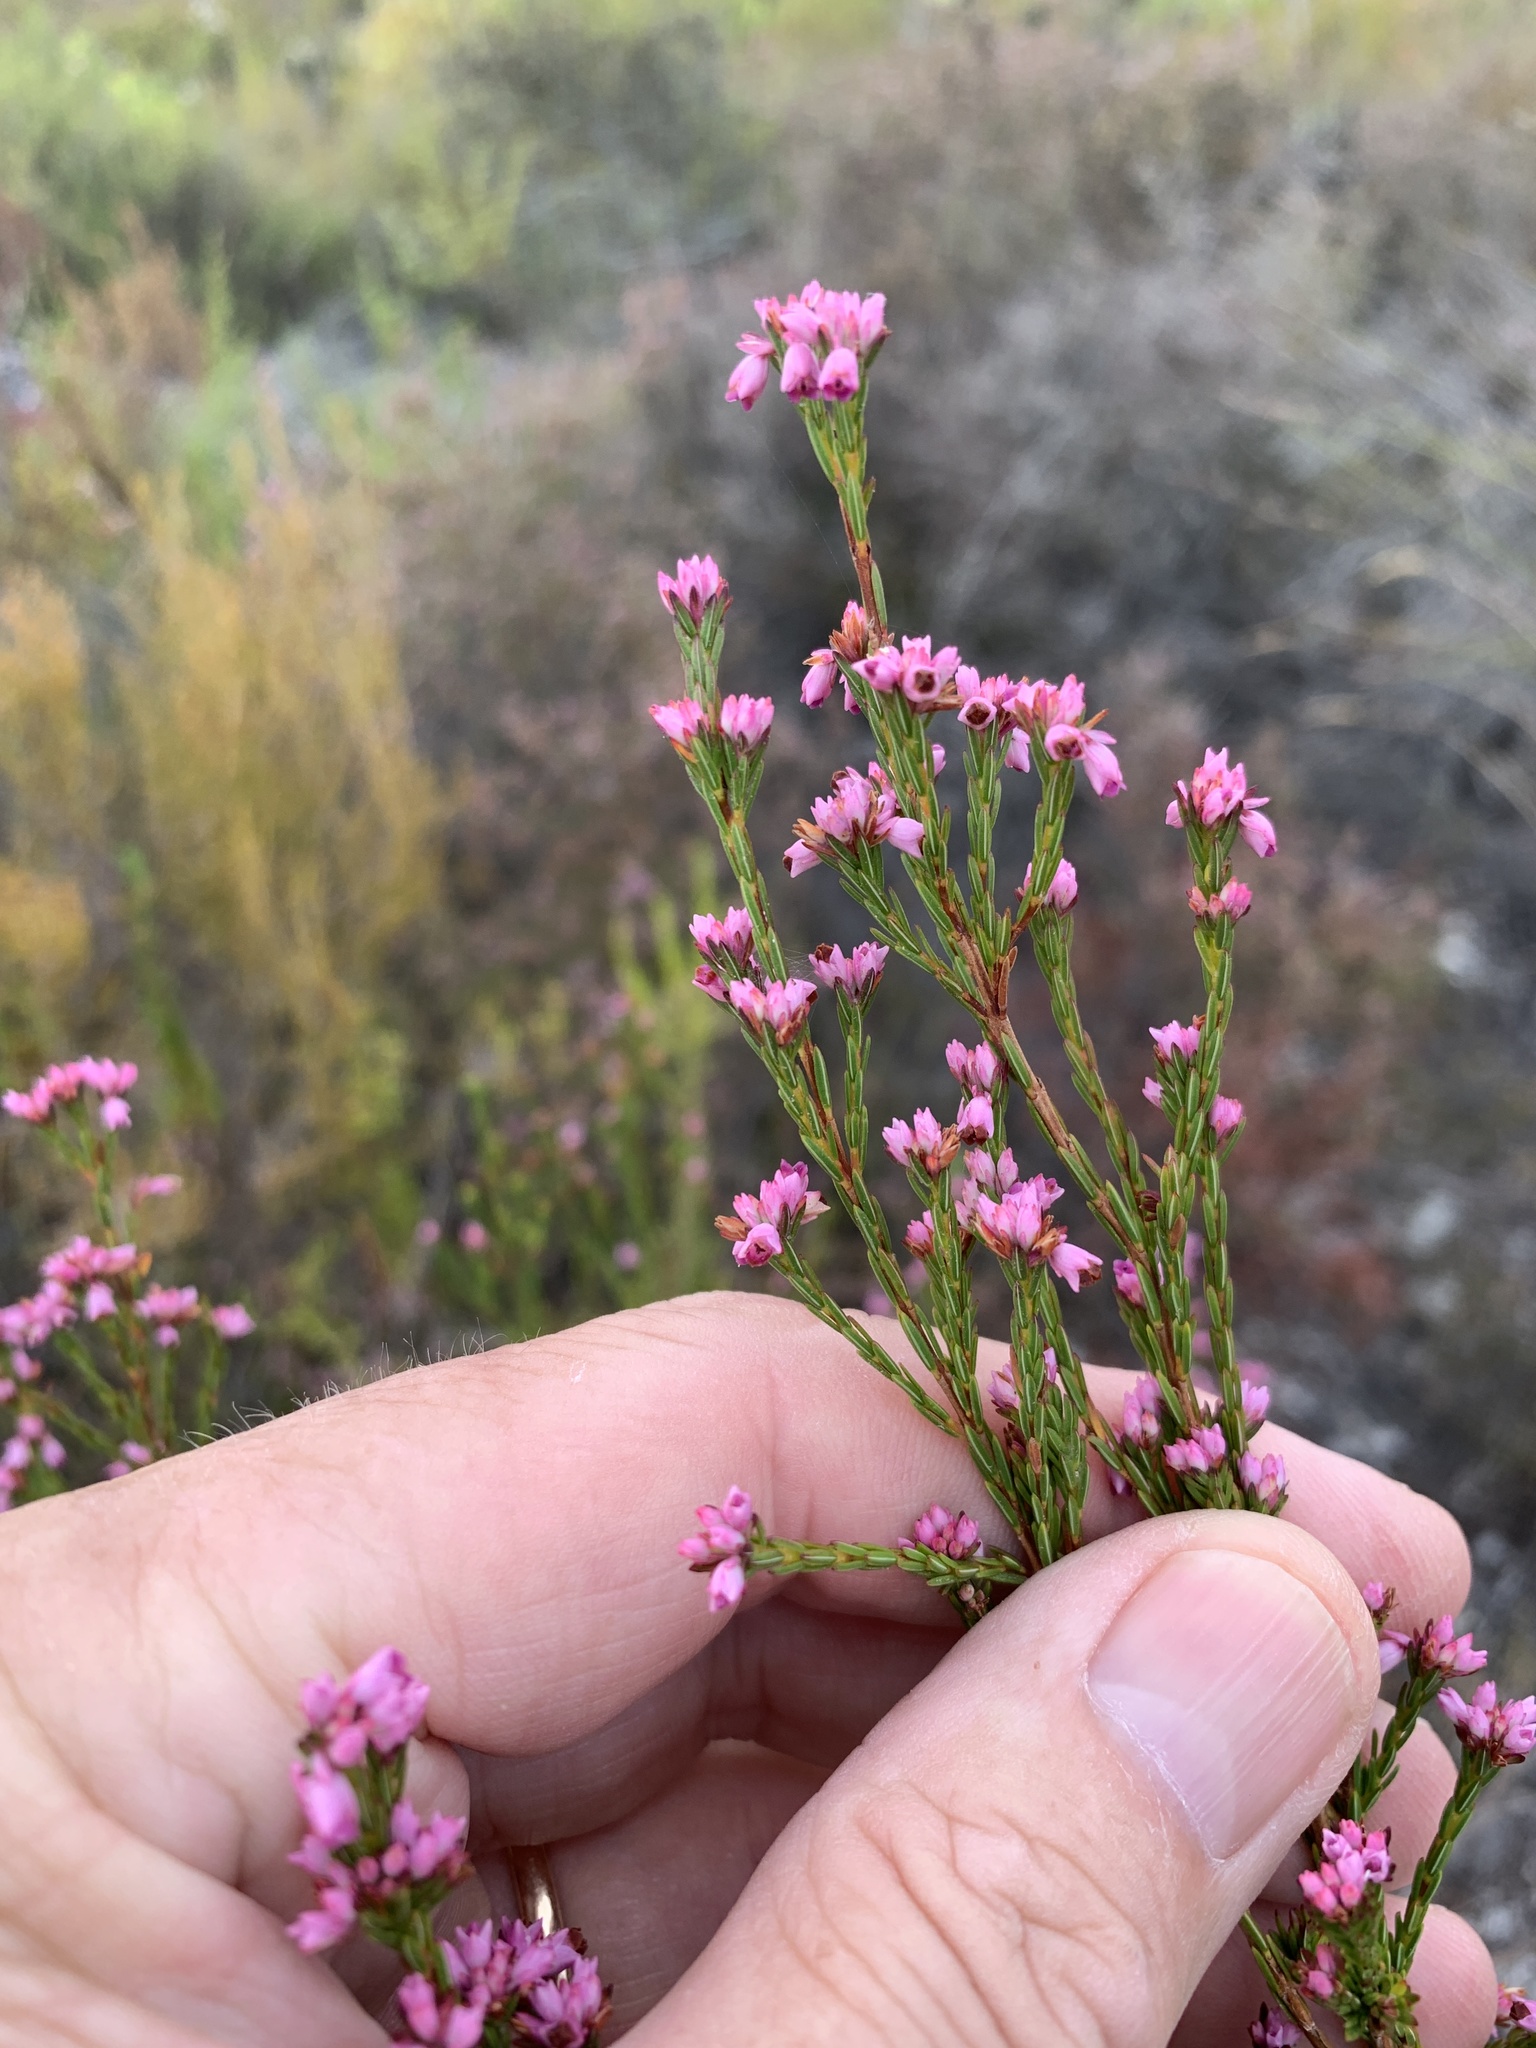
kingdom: Plantae
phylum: Tracheophyta
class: Magnoliopsida
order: Ericales
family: Ericaceae
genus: Erica
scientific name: Erica corifolia
